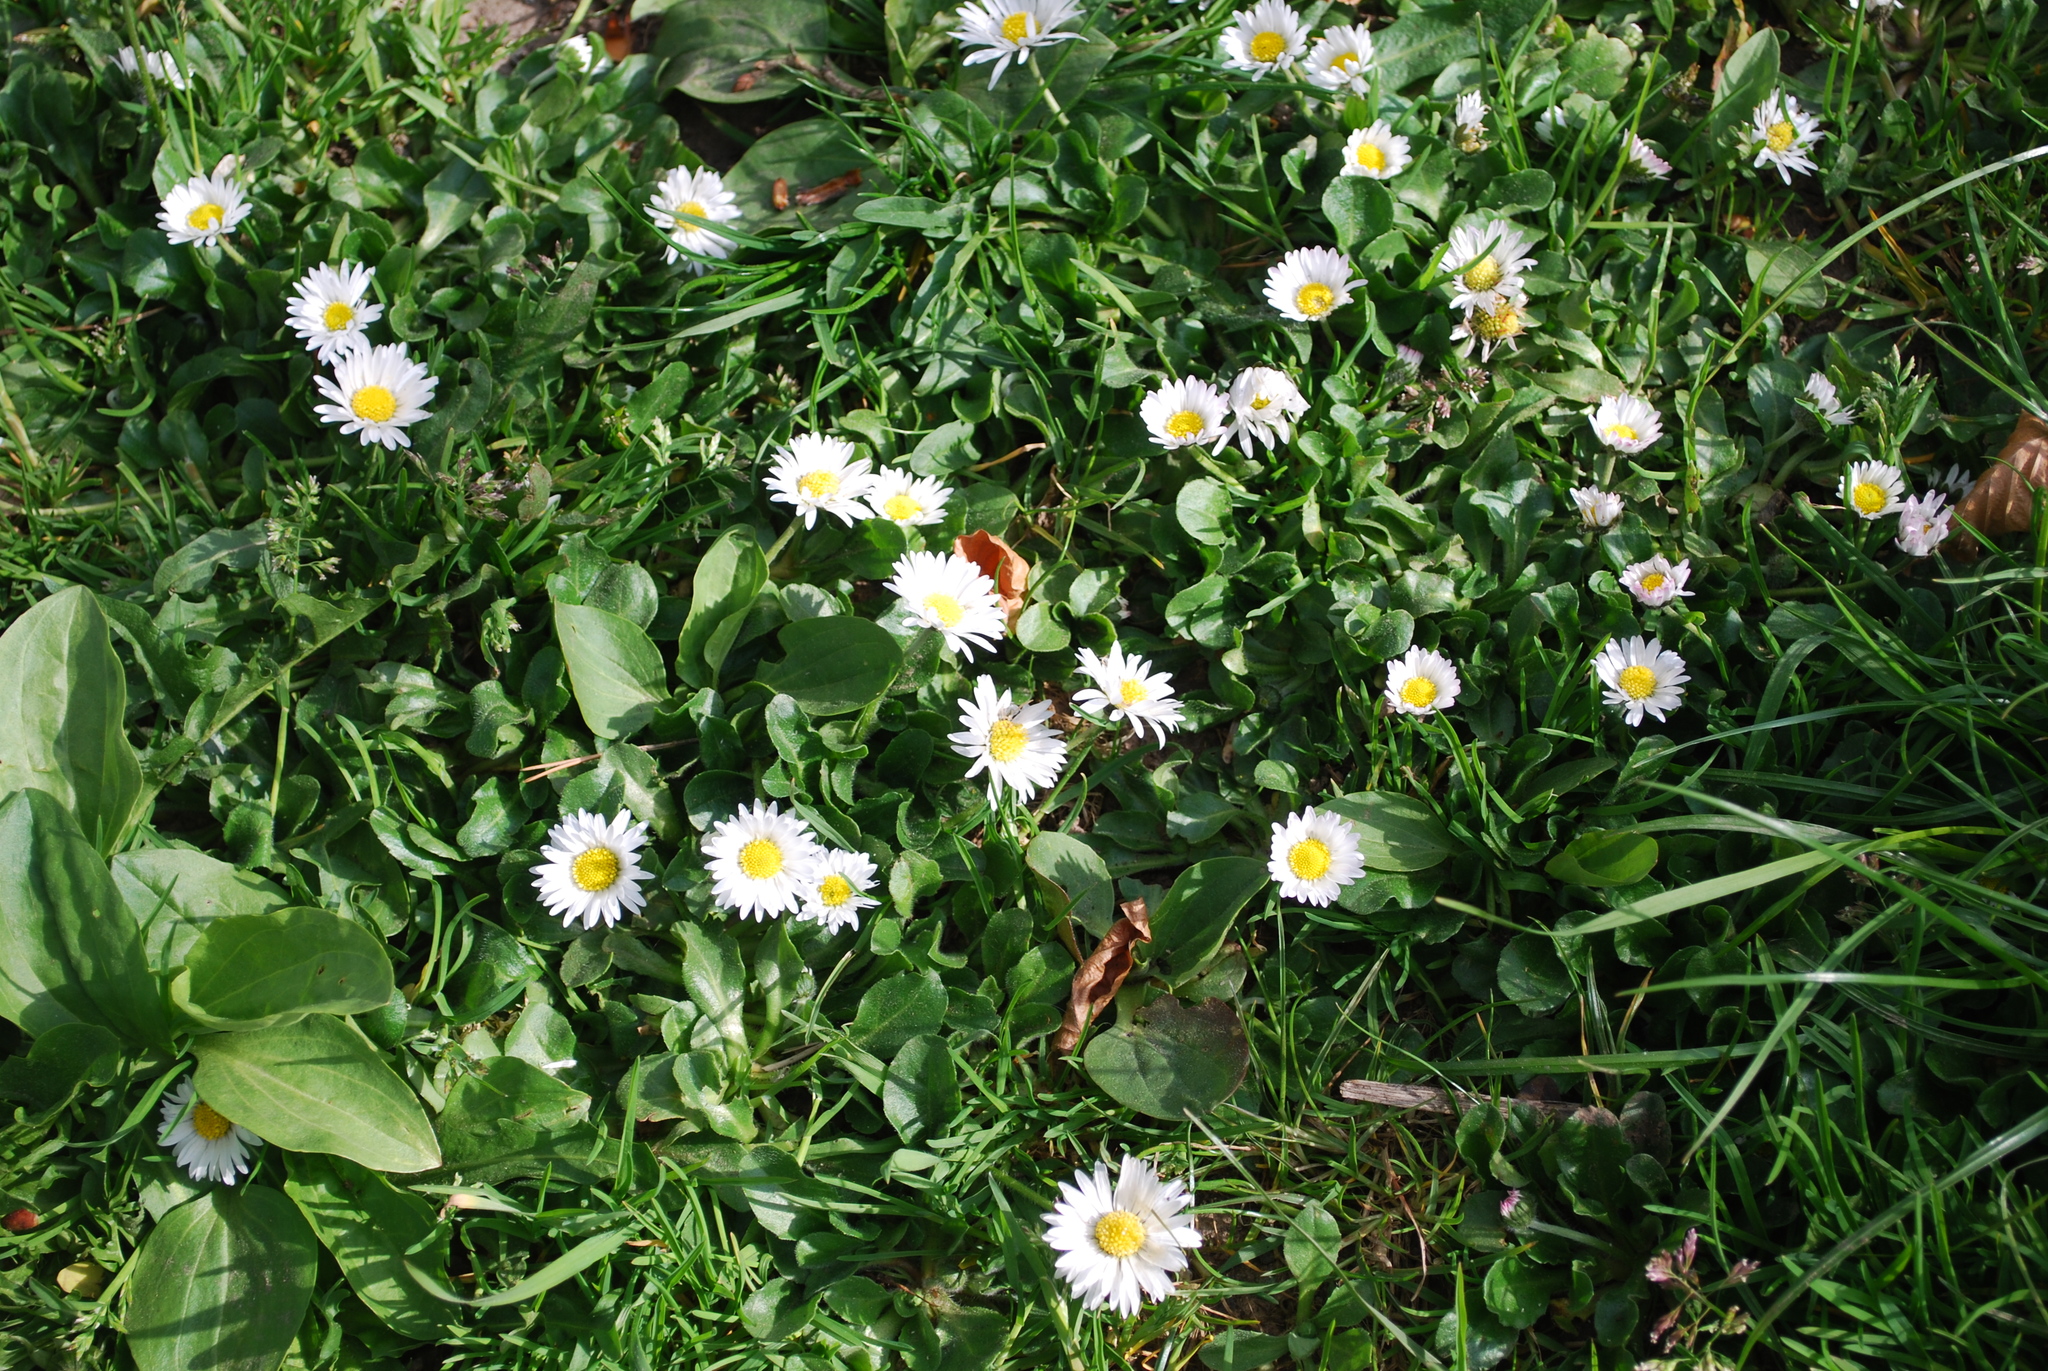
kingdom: Plantae
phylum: Tracheophyta
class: Magnoliopsida
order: Asterales
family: Asteraceae
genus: Bellis
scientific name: Bellis perennis
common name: Lawndaisy
